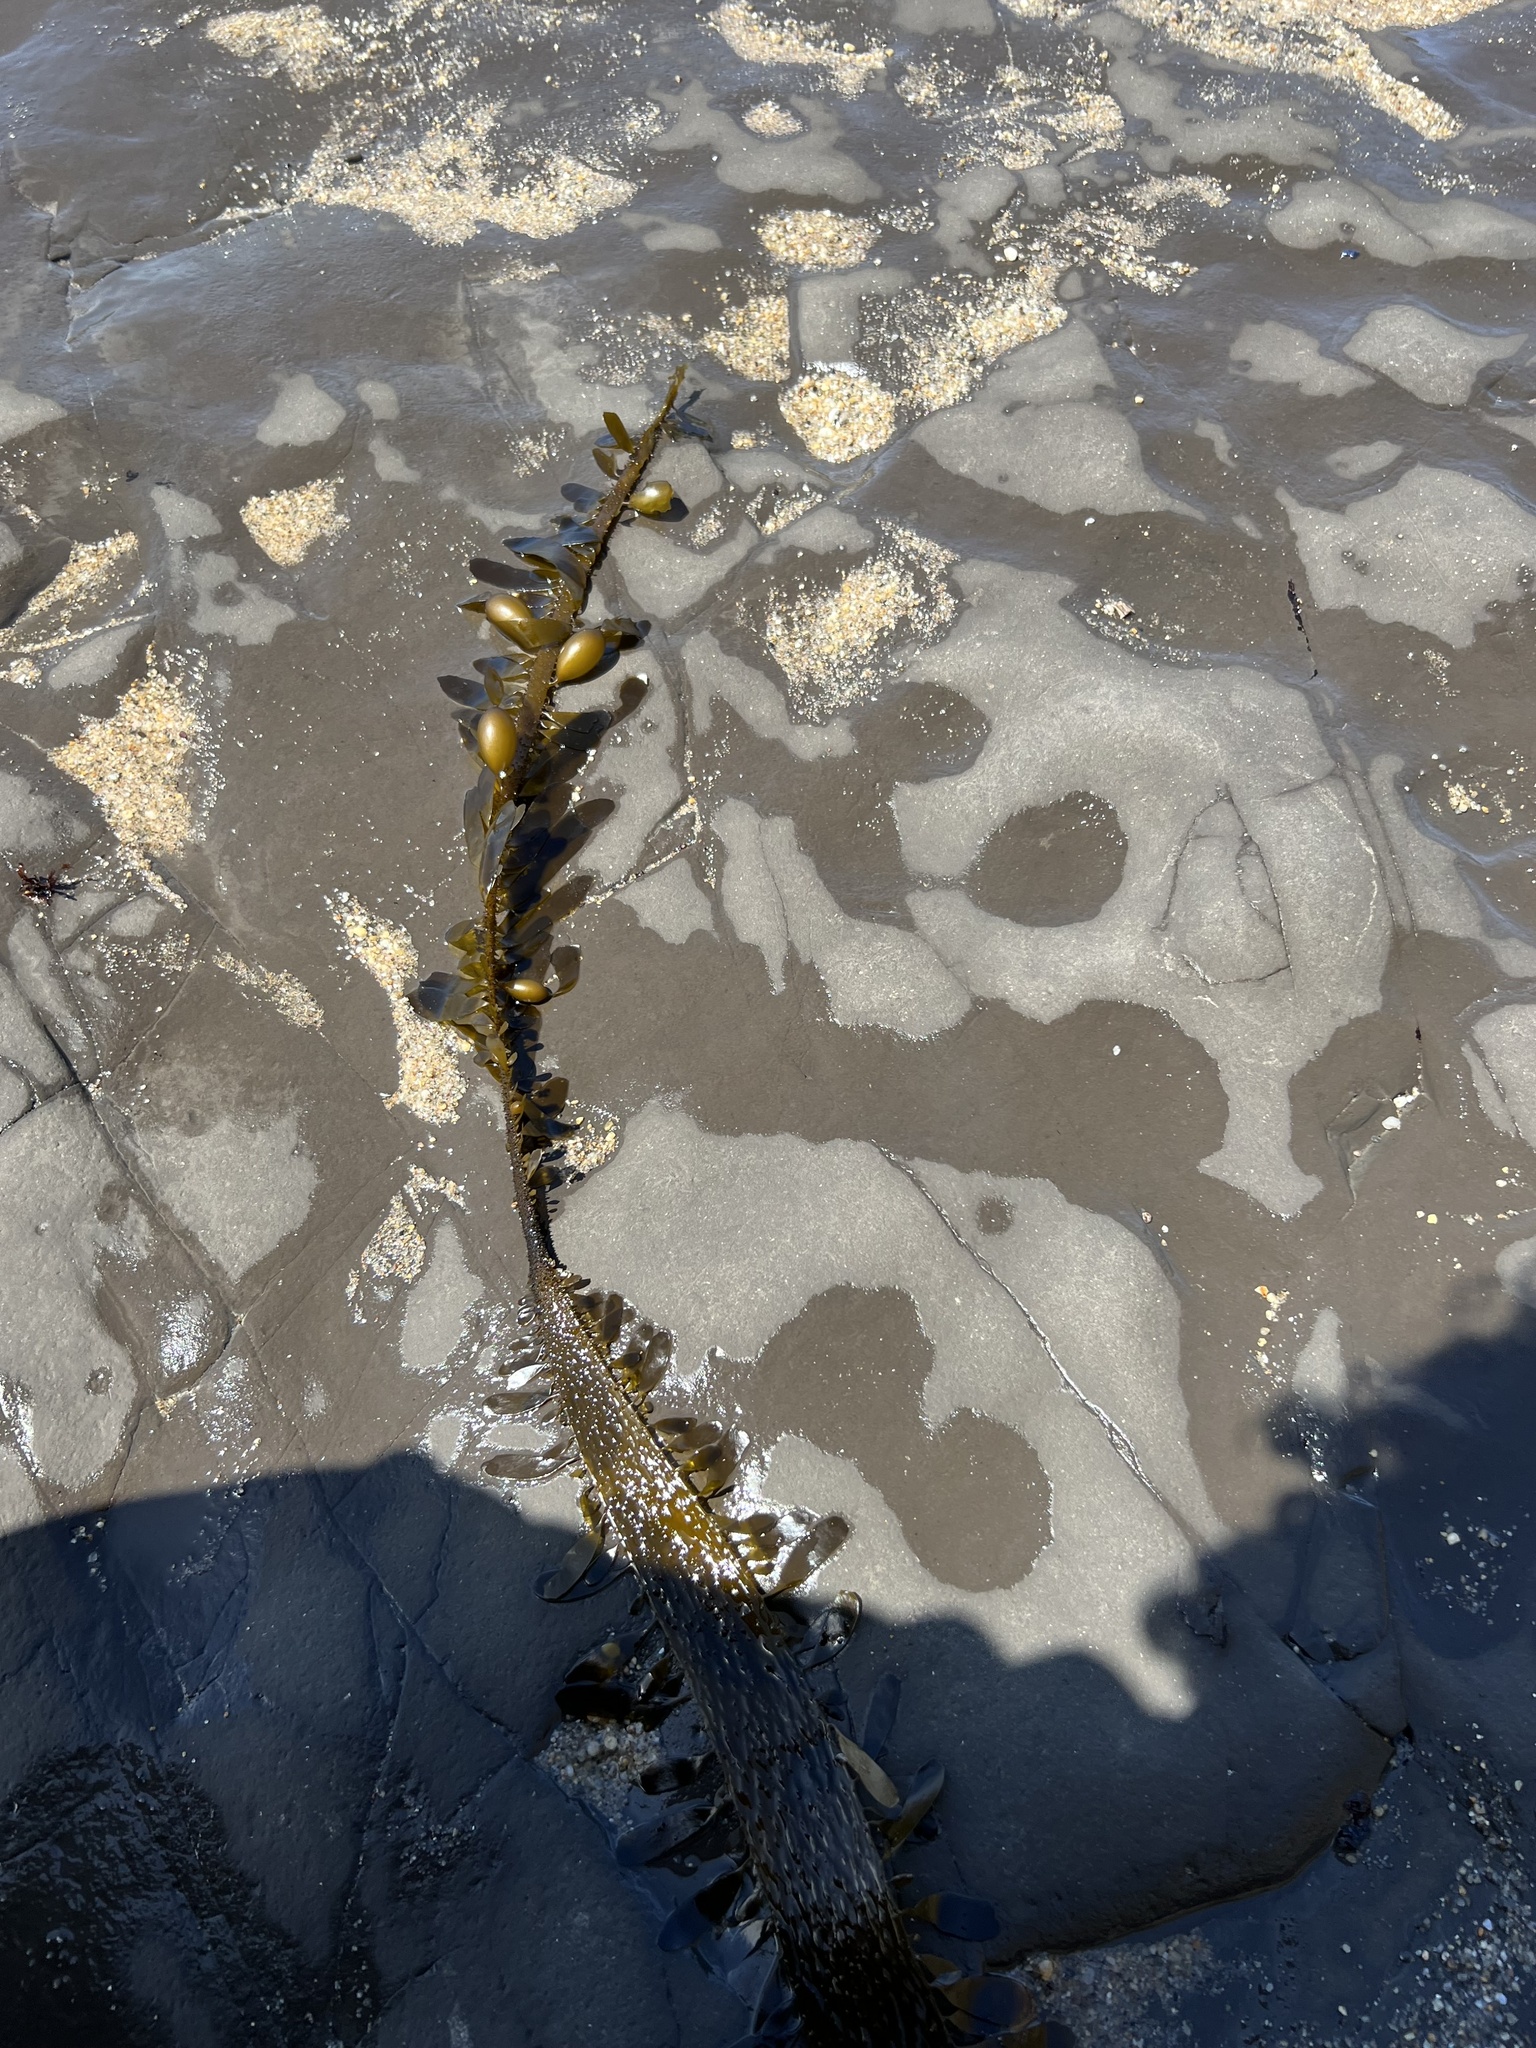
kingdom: Chromista
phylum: Ochrophyta
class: Phaeophyceae
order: Laminariales
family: Lessoniaceae
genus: Egregia
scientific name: Egregia menziesii
